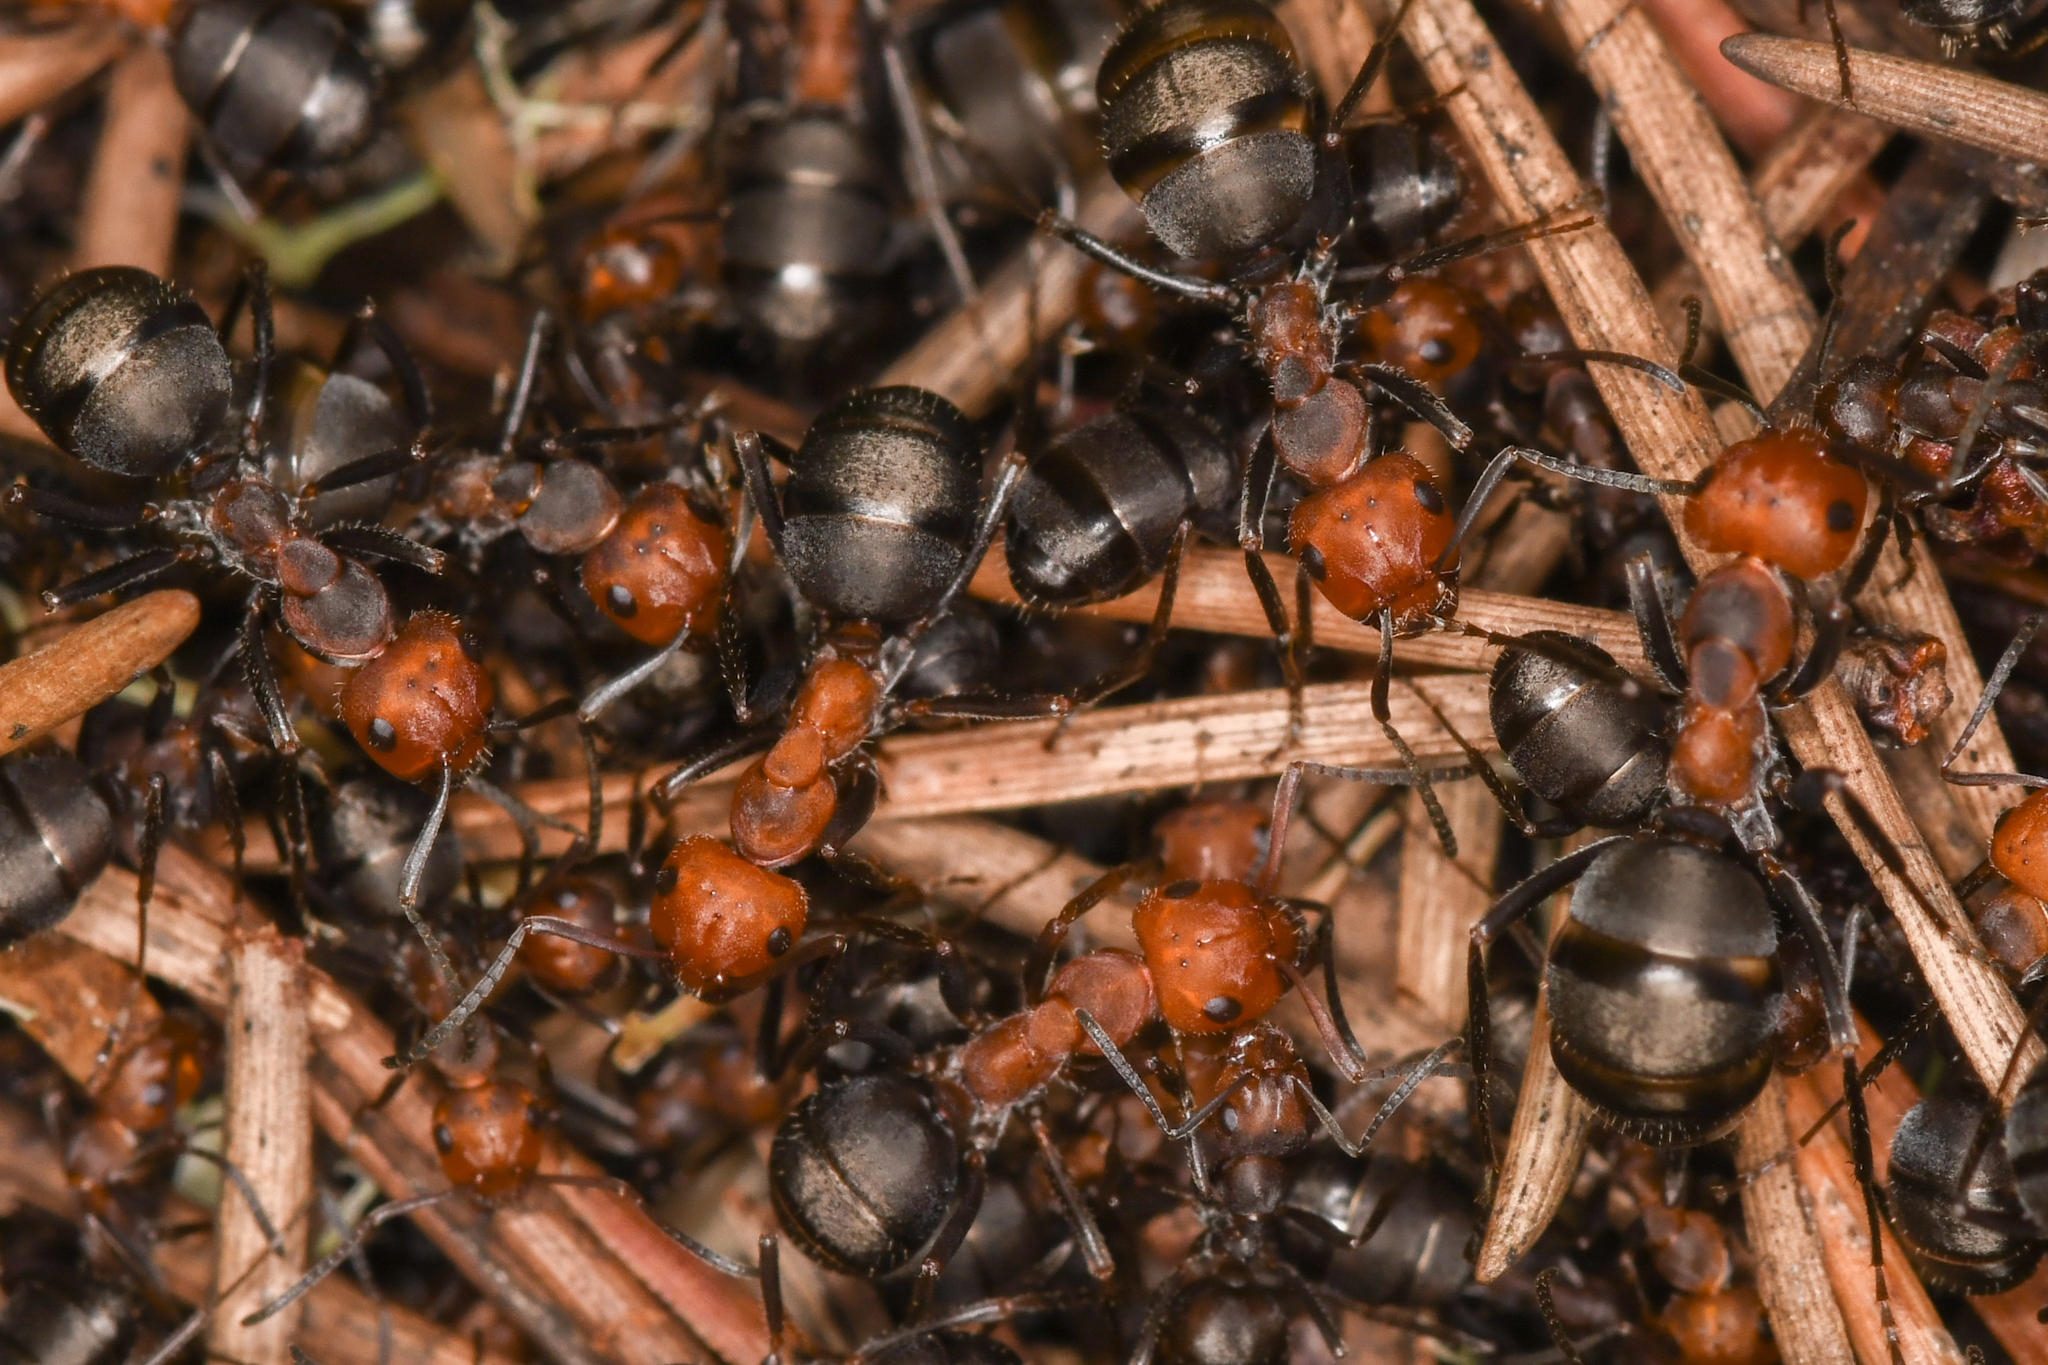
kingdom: Animalia
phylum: Arthropoda
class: Insecta
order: Hymenoptera
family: Formicidae
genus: Formica
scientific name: Formica obscuripes
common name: Western thatching ant
